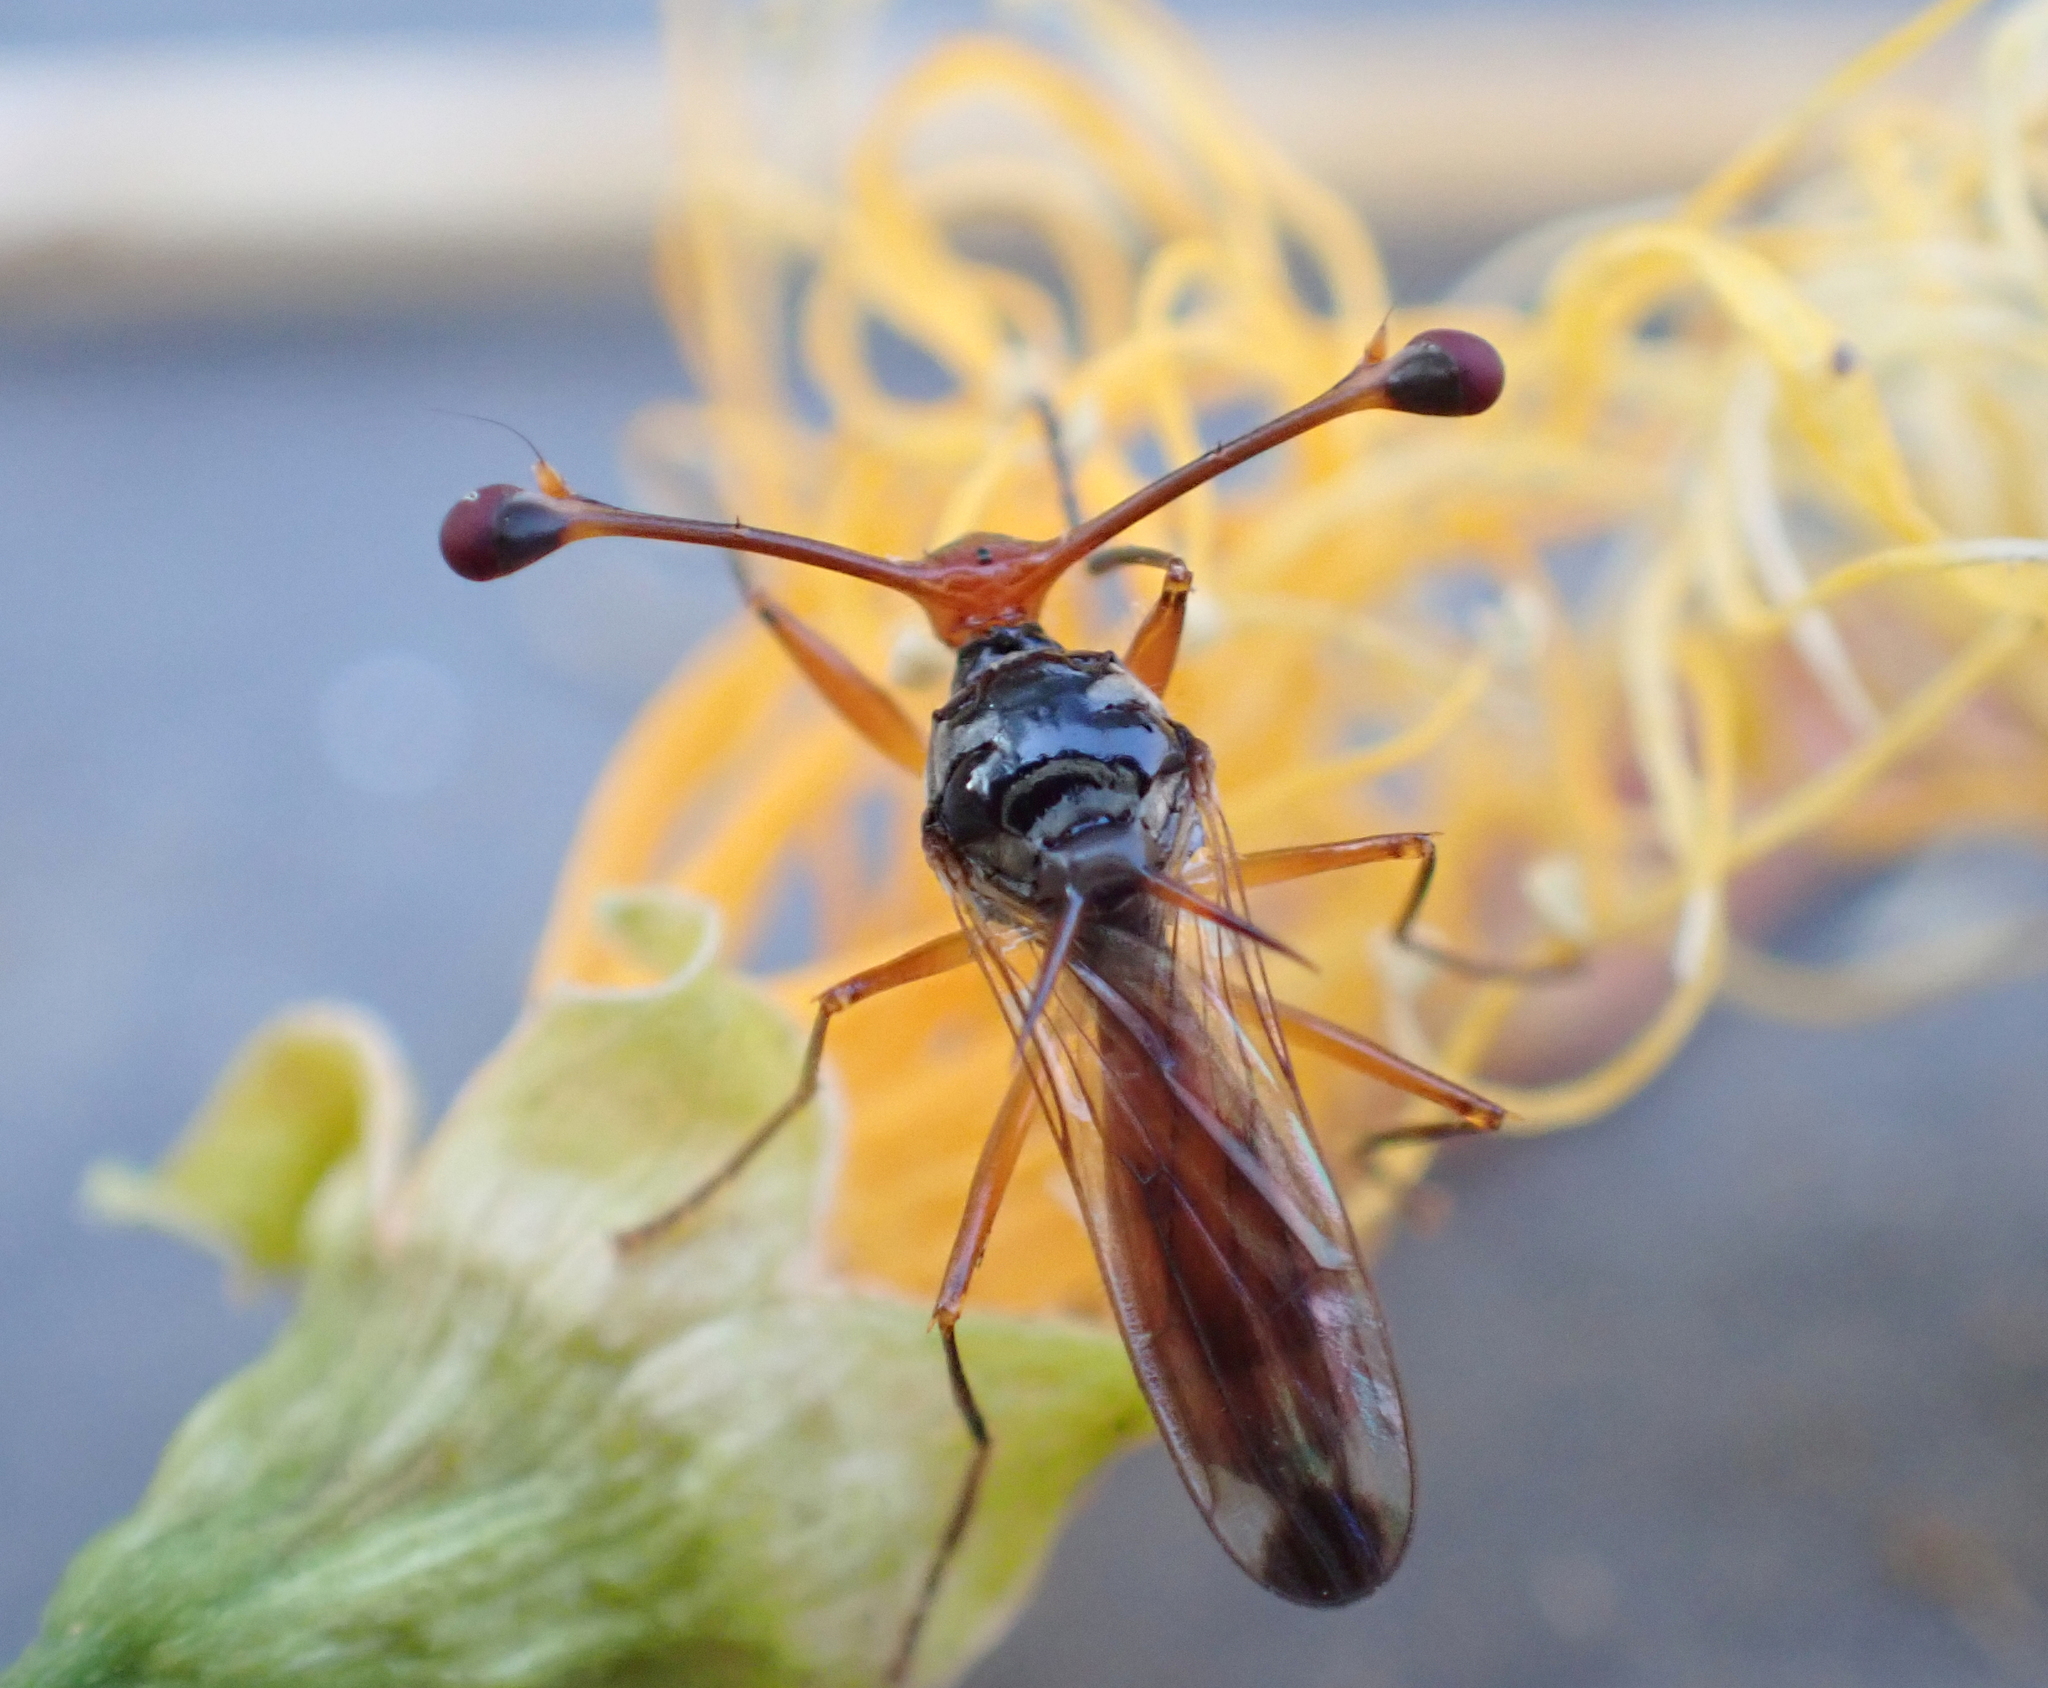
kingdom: Animalia
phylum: Arthropoda
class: Insecta
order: Diptera
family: Diopsidae
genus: Diopsis
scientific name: Diopsis
